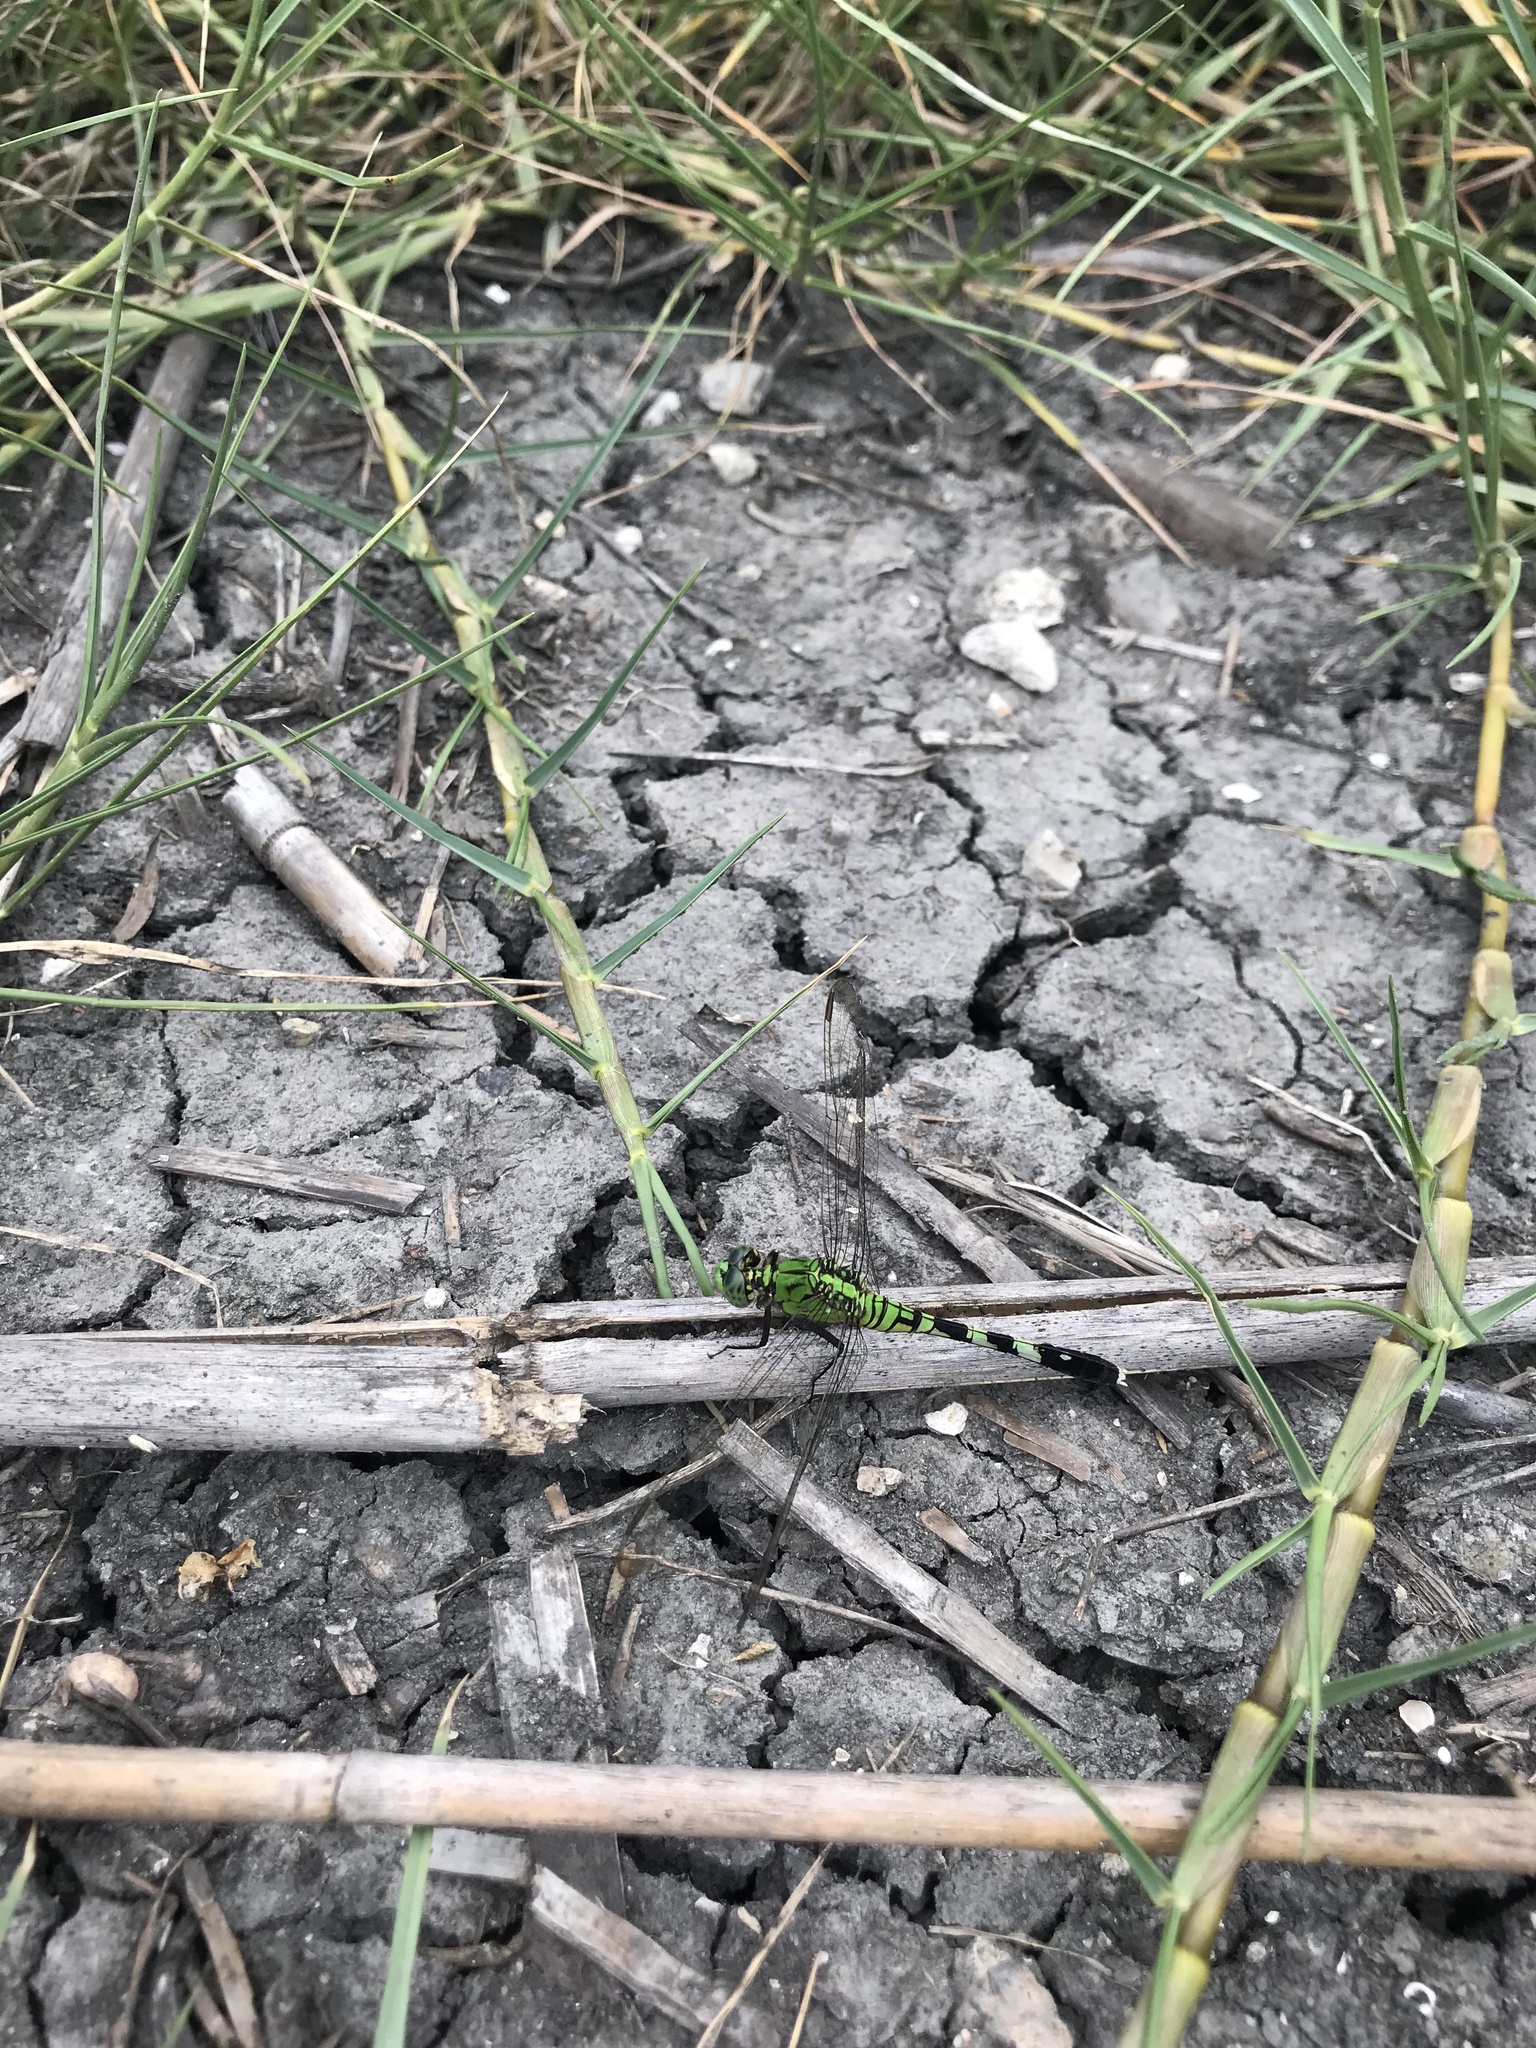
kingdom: Animalia
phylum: Arthropoda
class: Insecta
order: Odonata
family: Libellulidae
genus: Erythemis
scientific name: Erythemis simplicicollis
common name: Eastern pondhawk
